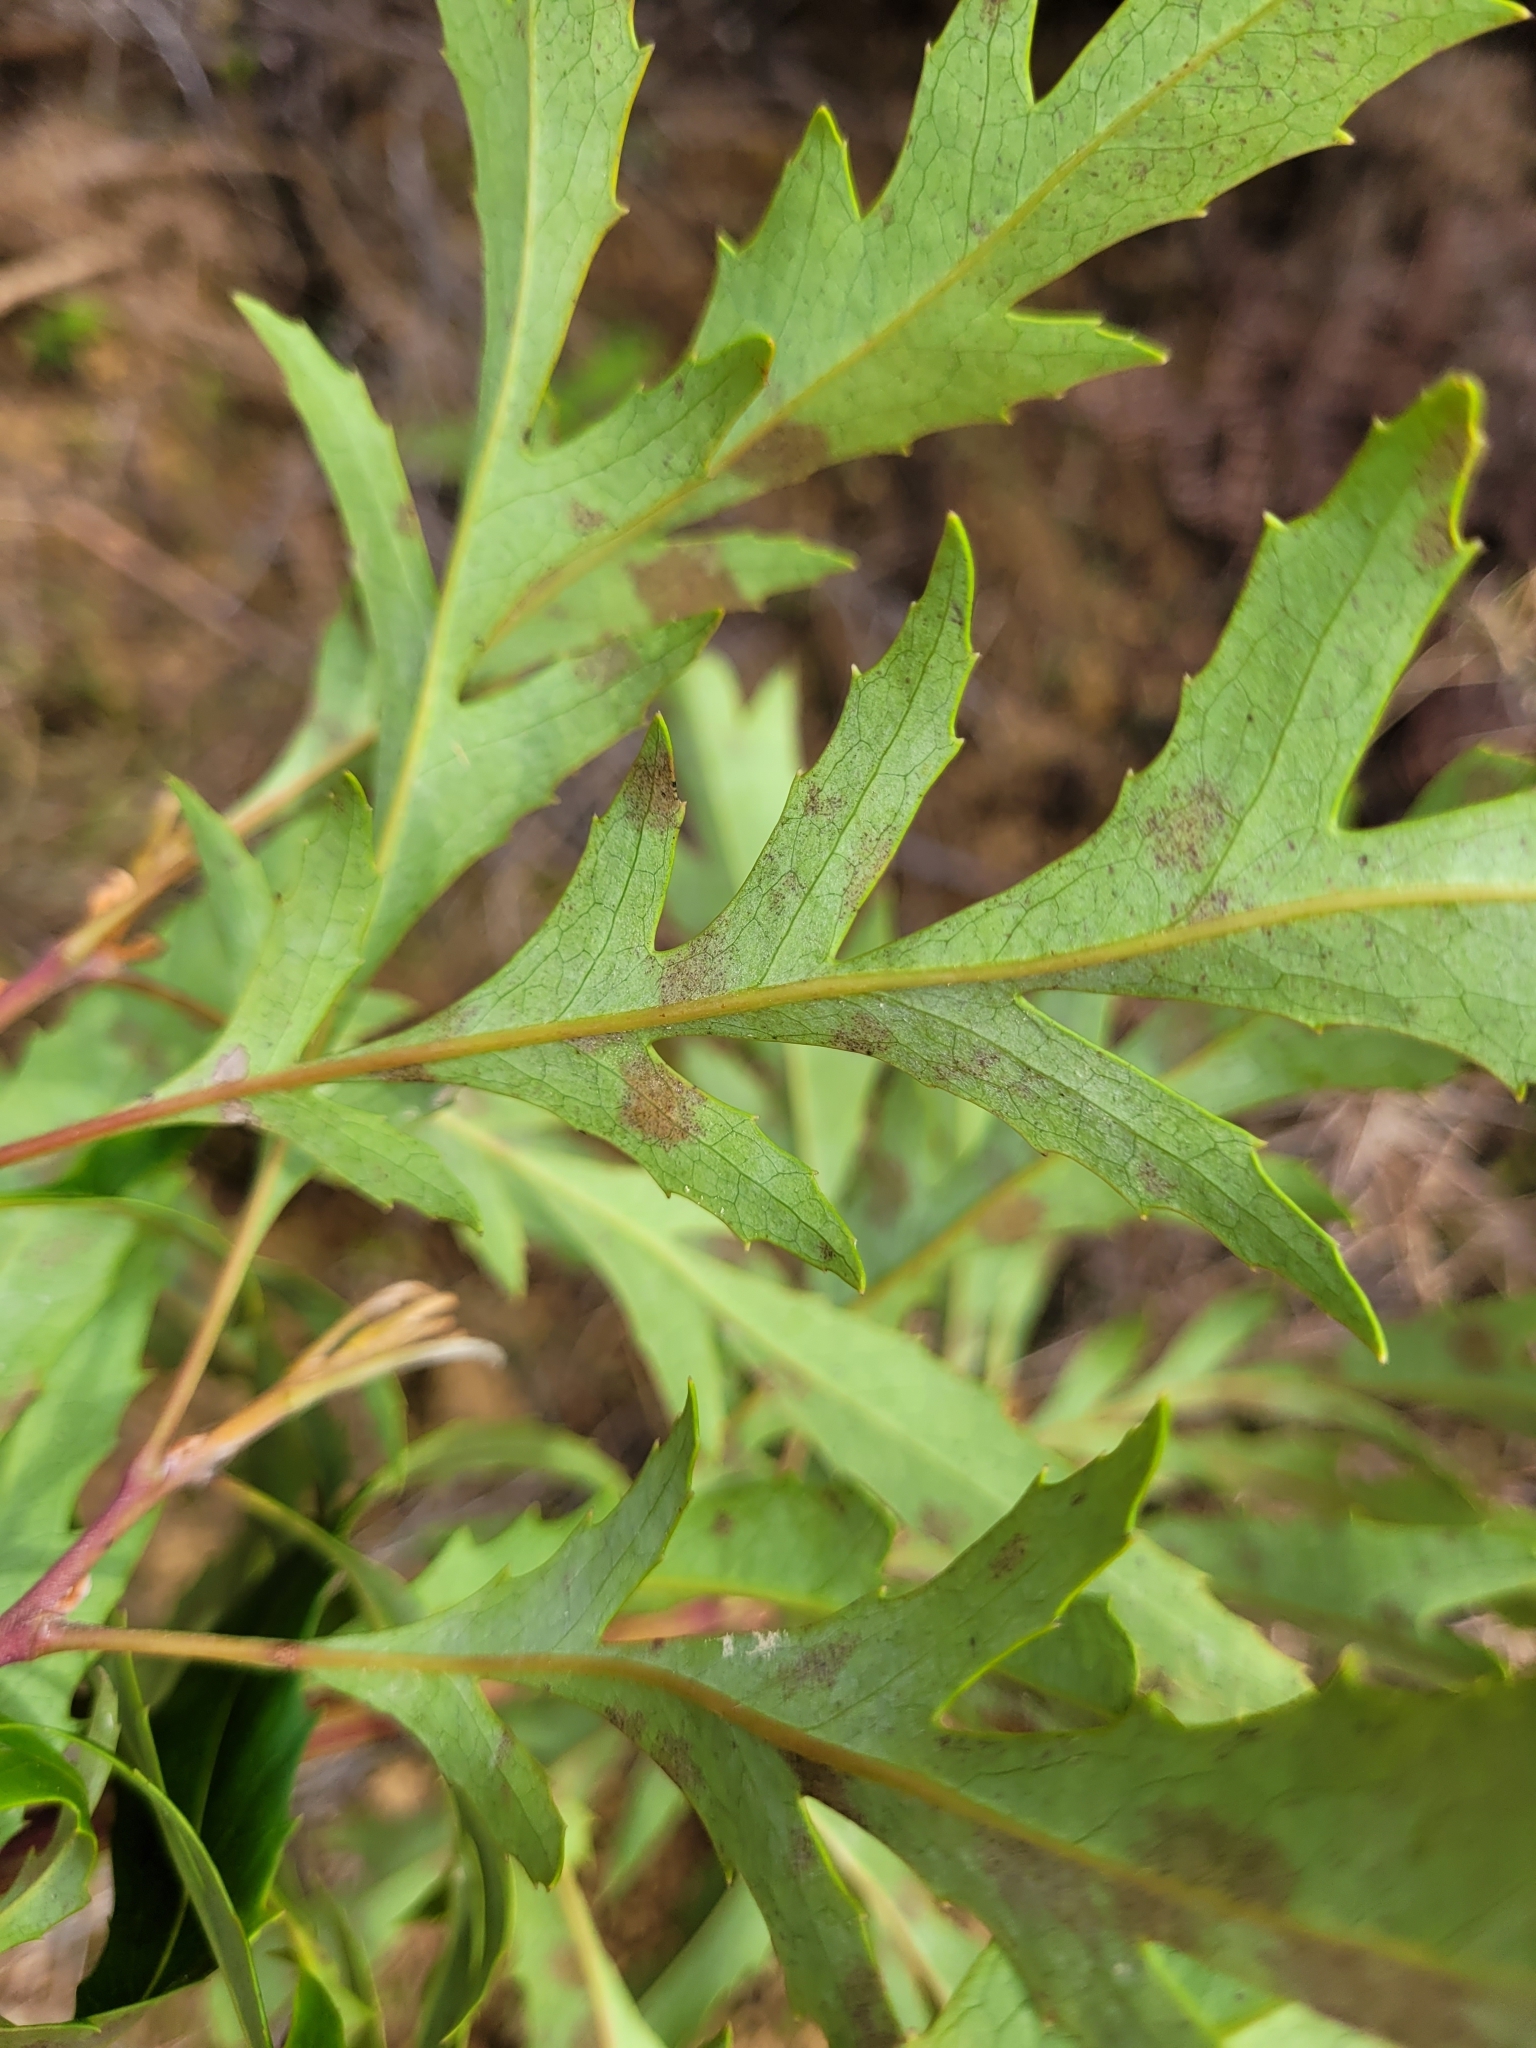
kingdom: Plantae
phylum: Tracheophyta
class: Magnoliopsida
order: Proteales
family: Proteaceae
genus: Lomatia
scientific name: Lomatia fraseri
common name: Forest lomatia
